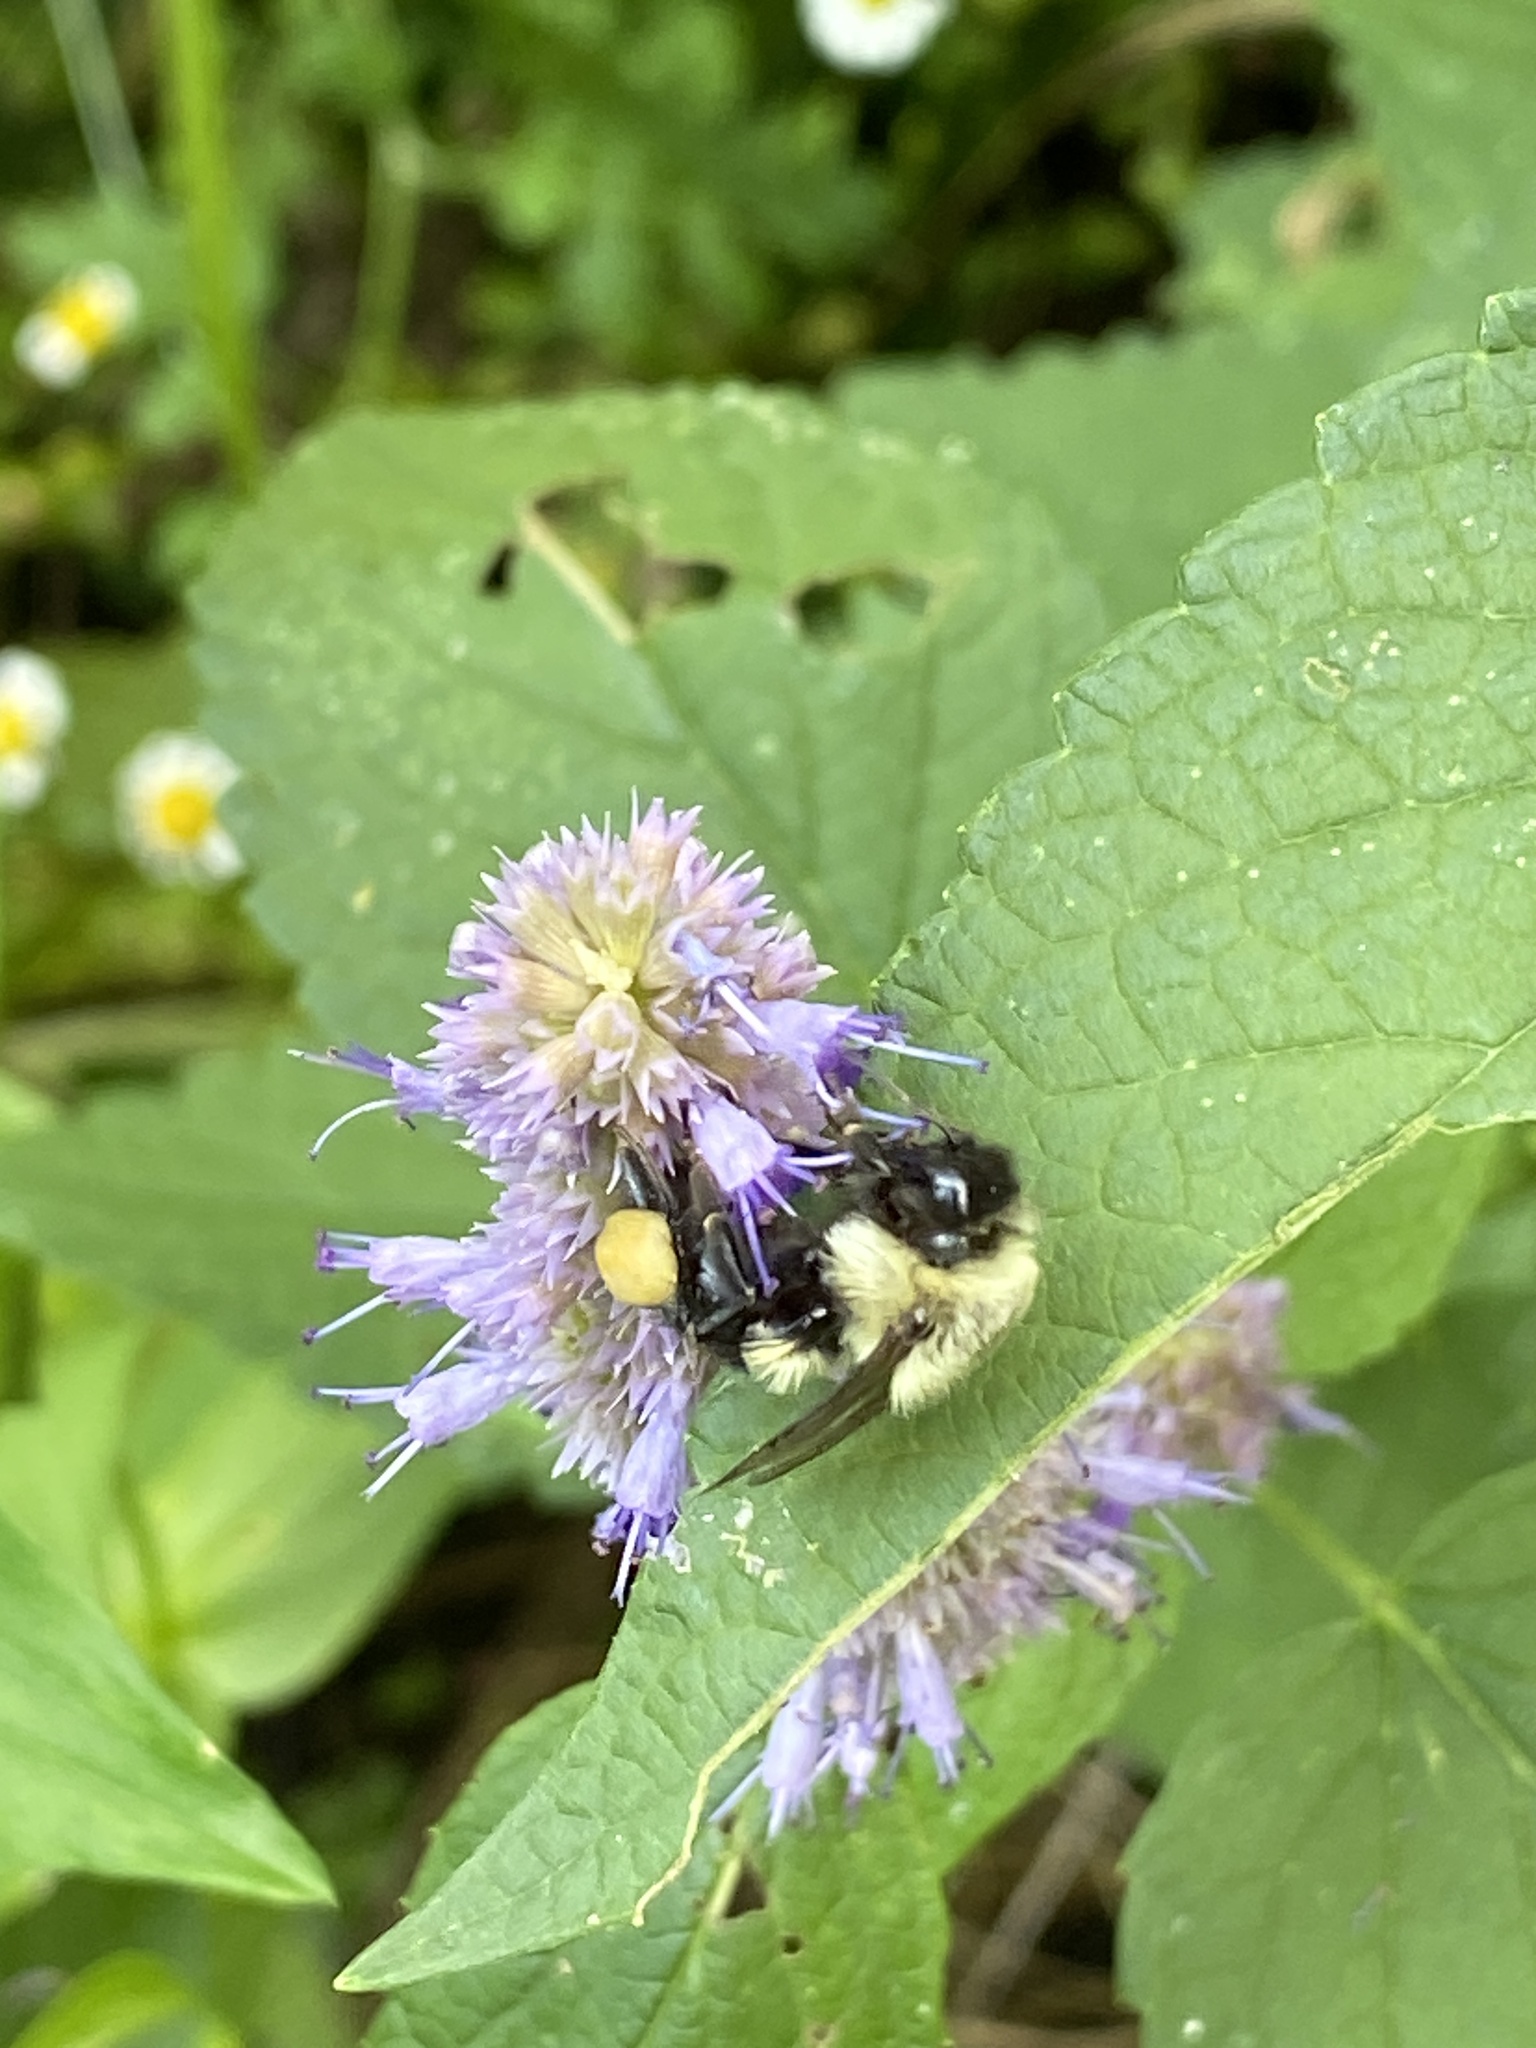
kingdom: Animalia
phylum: Arthropoda
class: Insecta
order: Hymenoptera
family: Apidae
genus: Bombus
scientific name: Bombus impatiens
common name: Common eastern bumble bee
